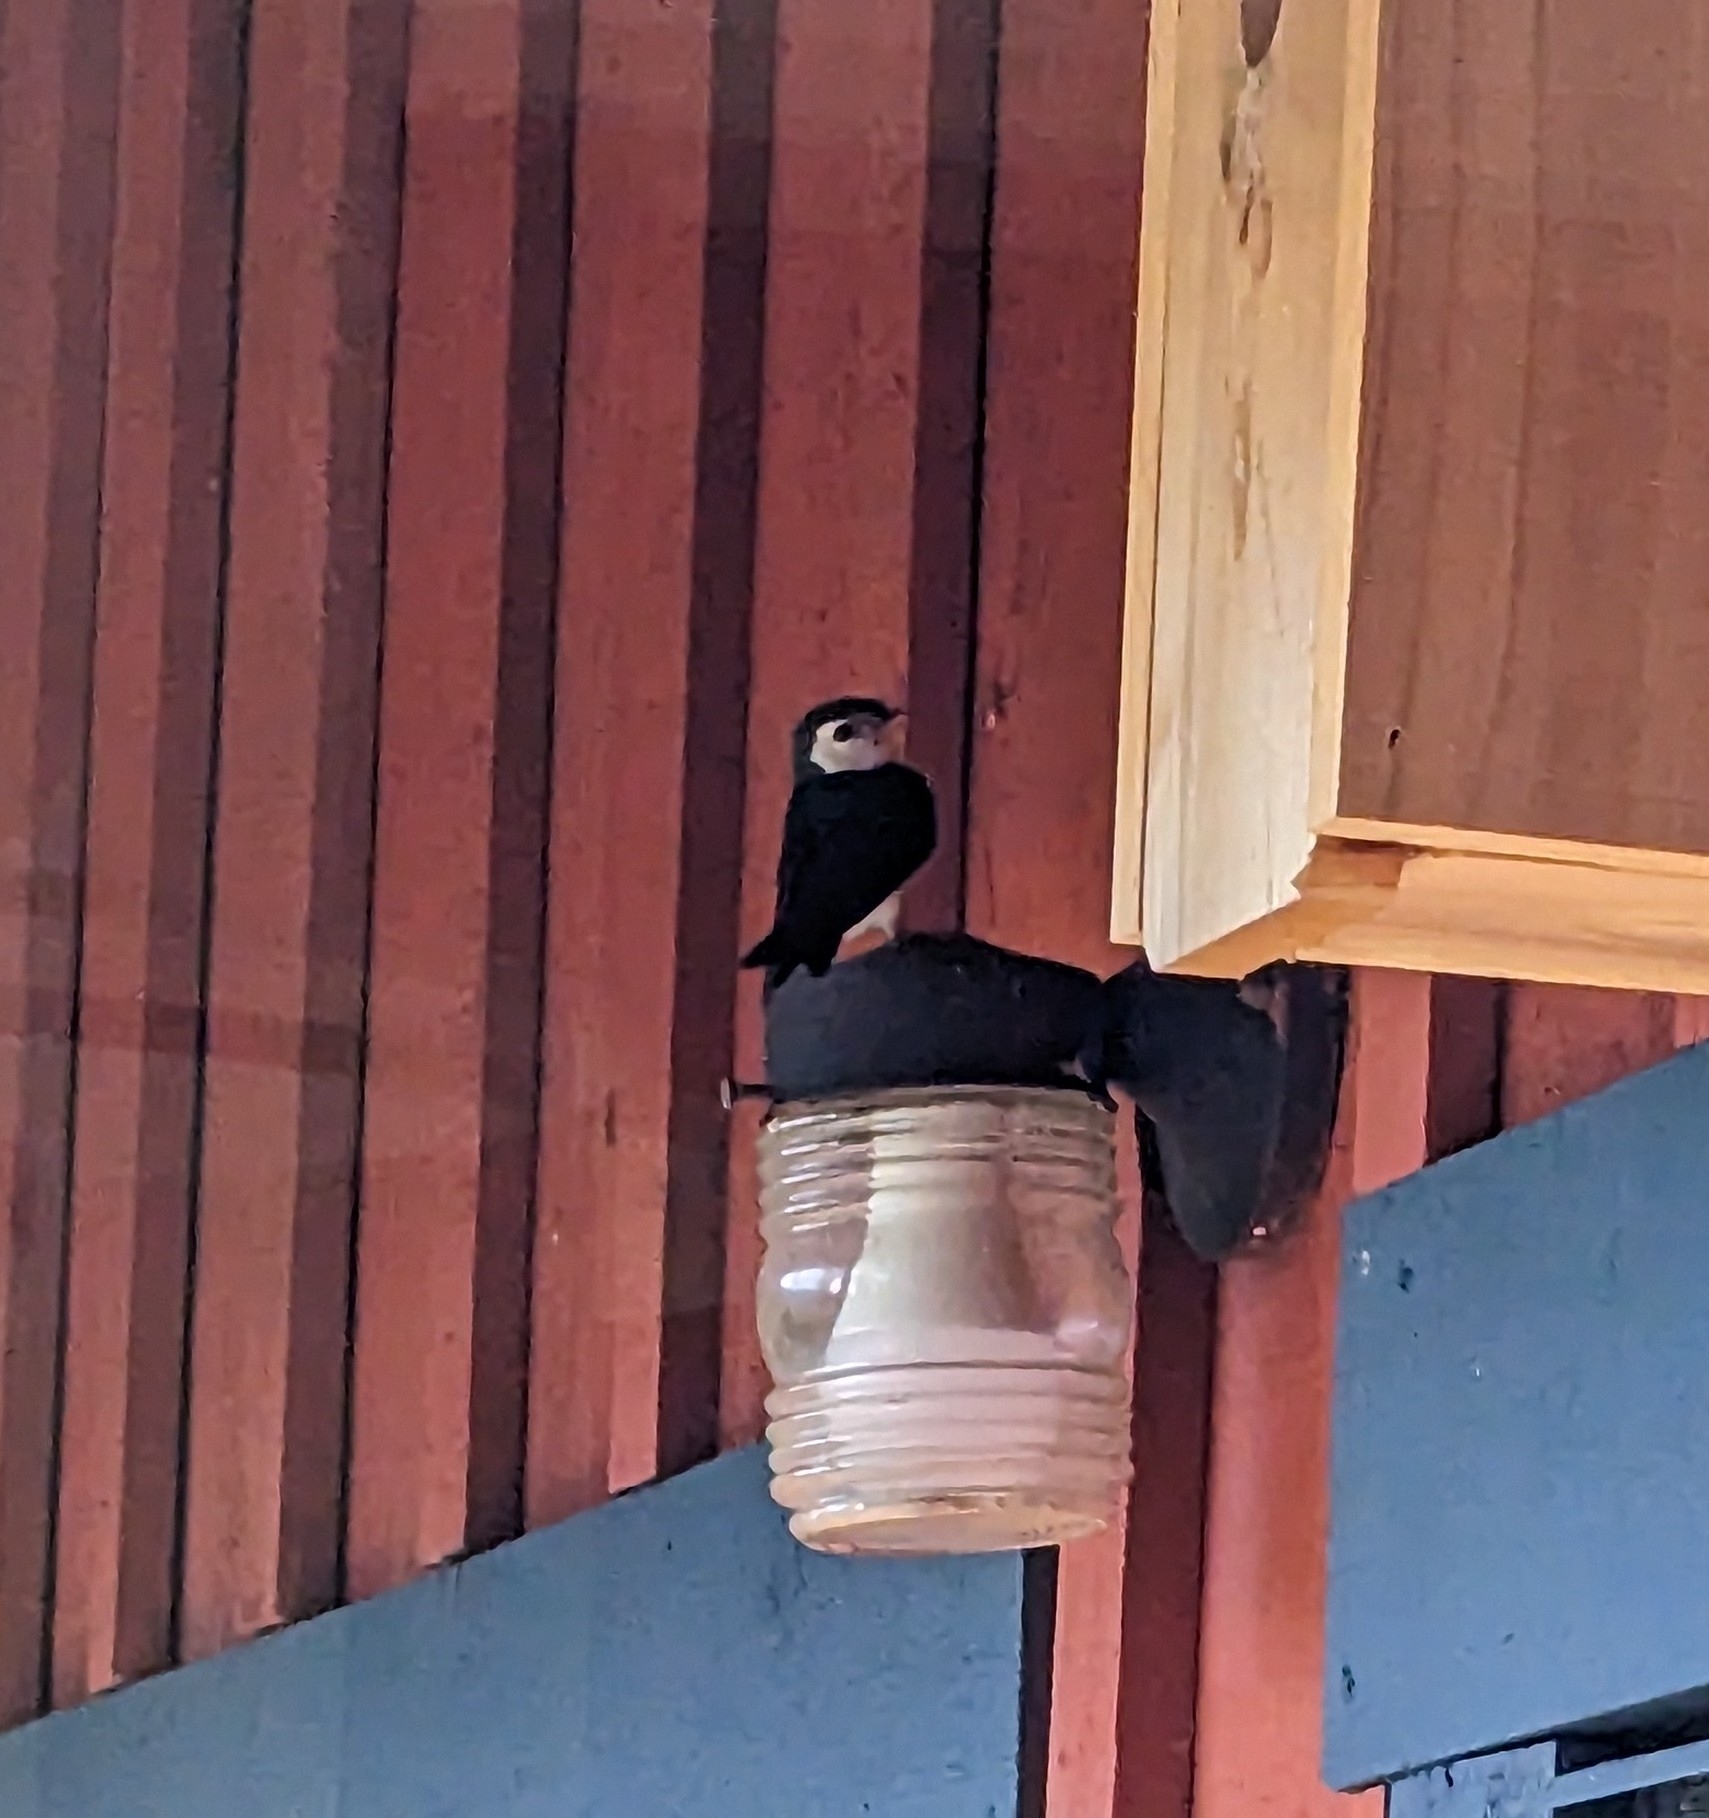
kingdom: Animalia
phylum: Chordata
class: Aves
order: Passeriformes
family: Hirundinidae
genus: Tachycineta
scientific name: Tachycineta thalassina
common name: Violet-green swallow
